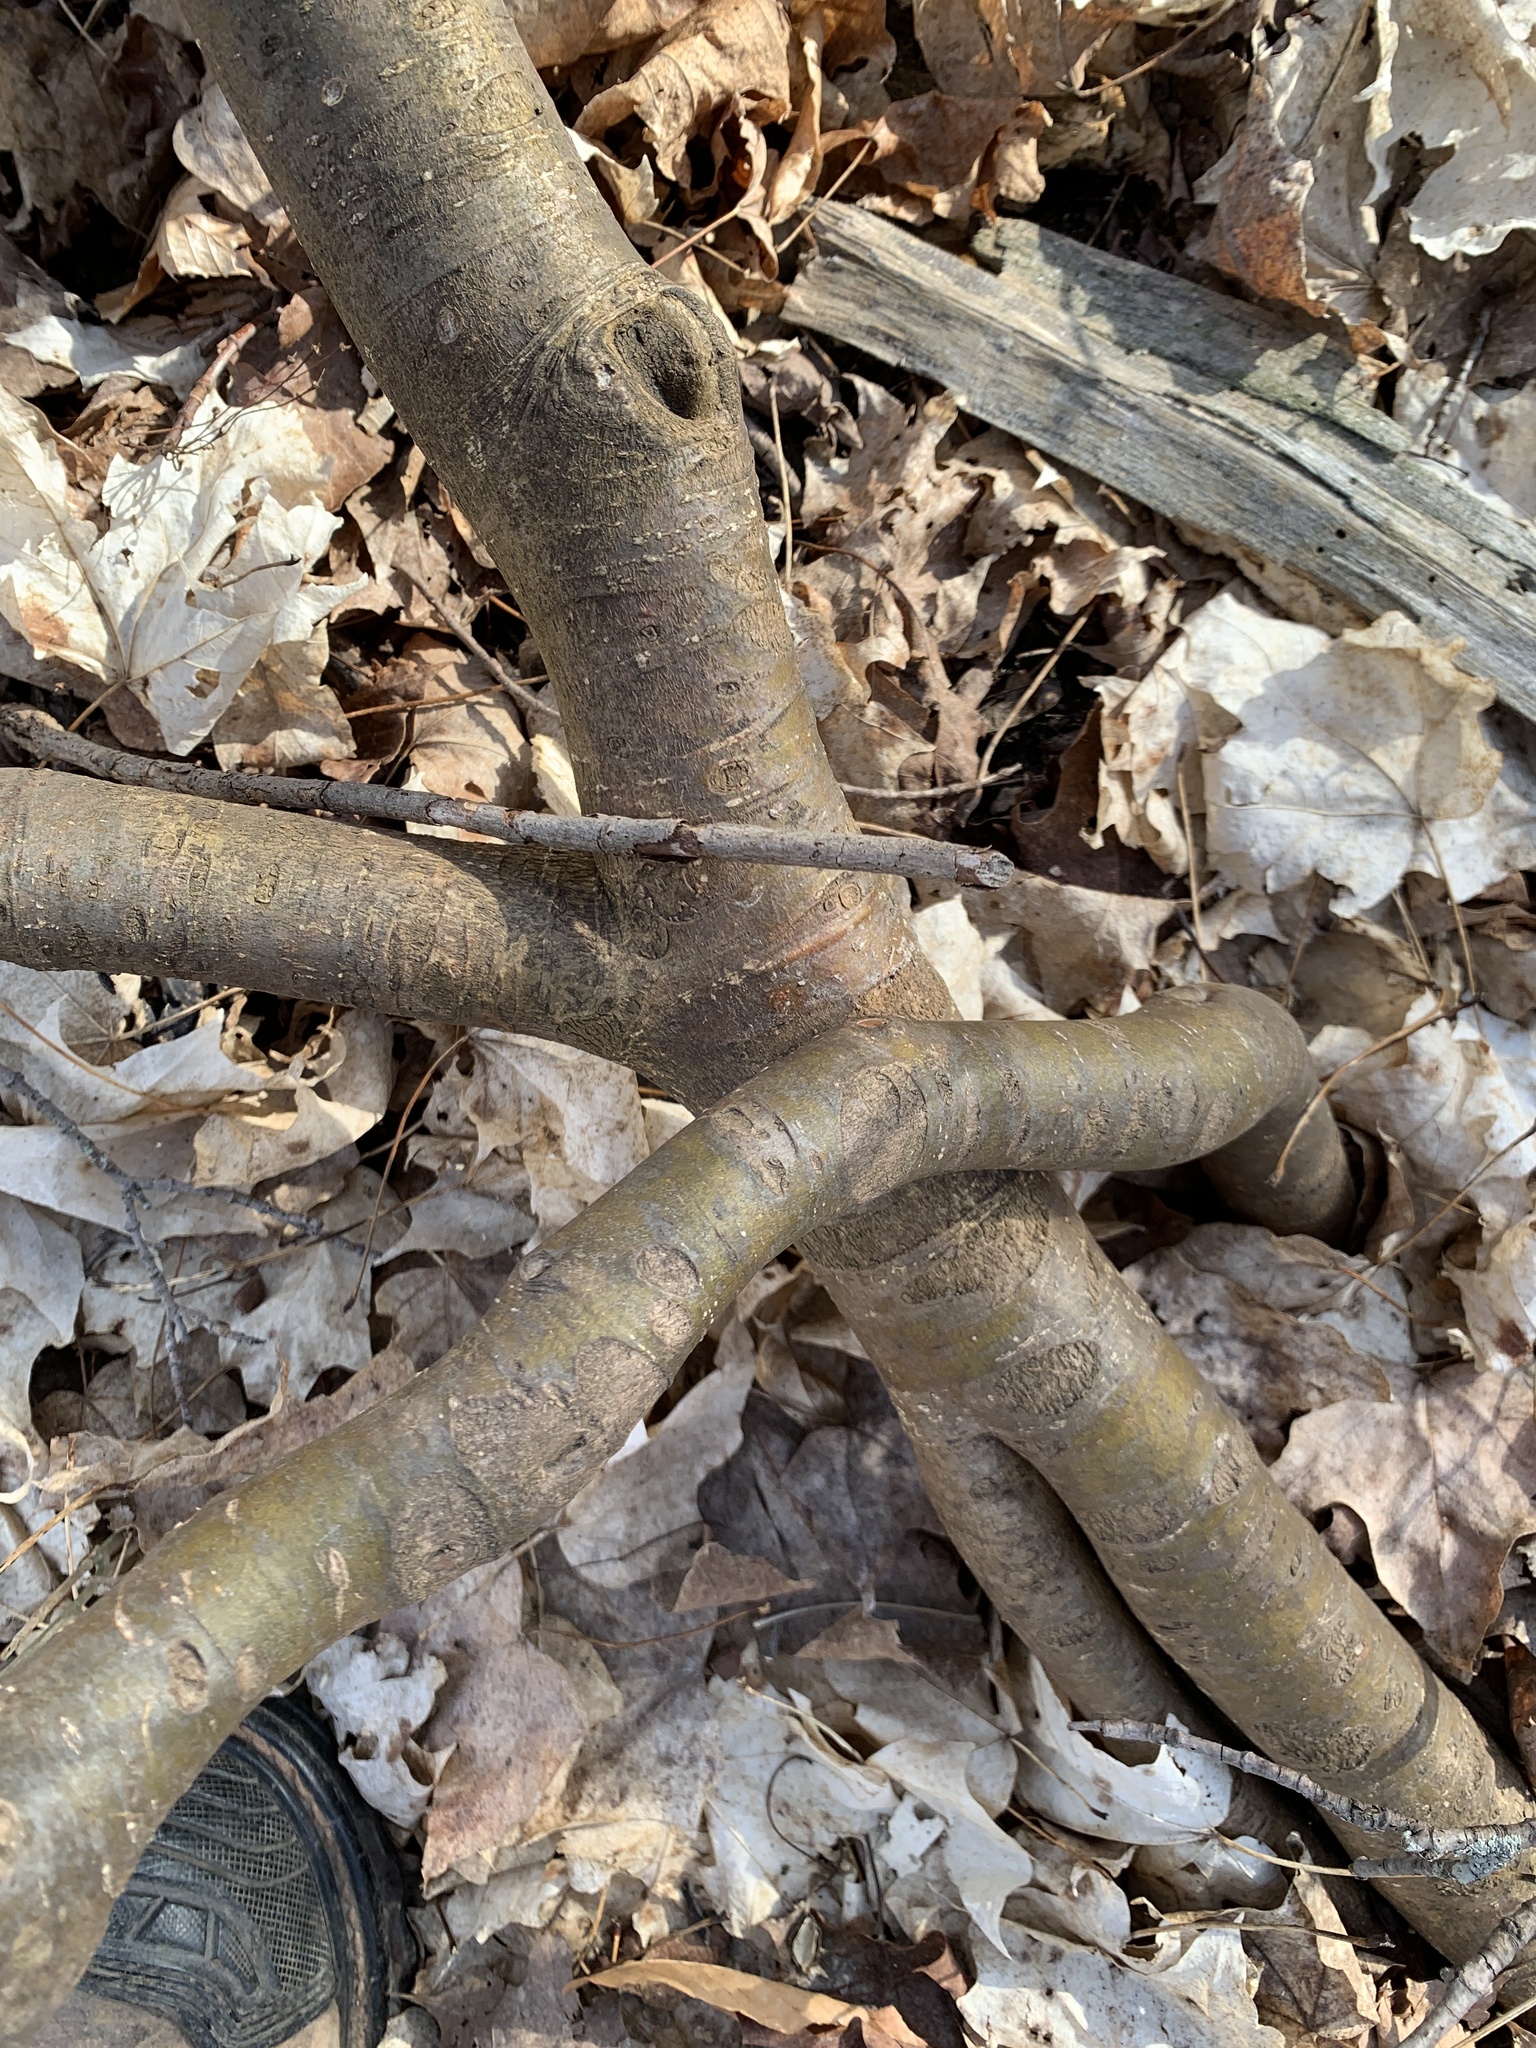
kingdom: Plantae
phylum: Tracheophyta
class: Magnoliopsida
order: Malvales
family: Thymelaeaceae
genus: Dirca
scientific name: Dirca palustris
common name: Leatherwood
